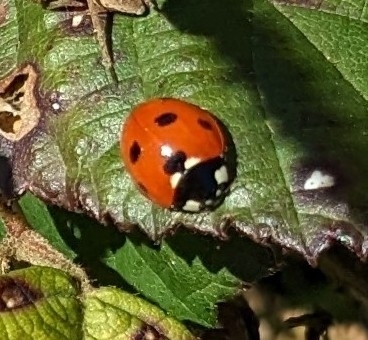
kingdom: Animalia
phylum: Arthropoda
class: Insecta
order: Coleoptera
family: Coccinellidae
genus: Coccinella
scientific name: Coccinella septempunctata
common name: Sevenspotted lady beetle
